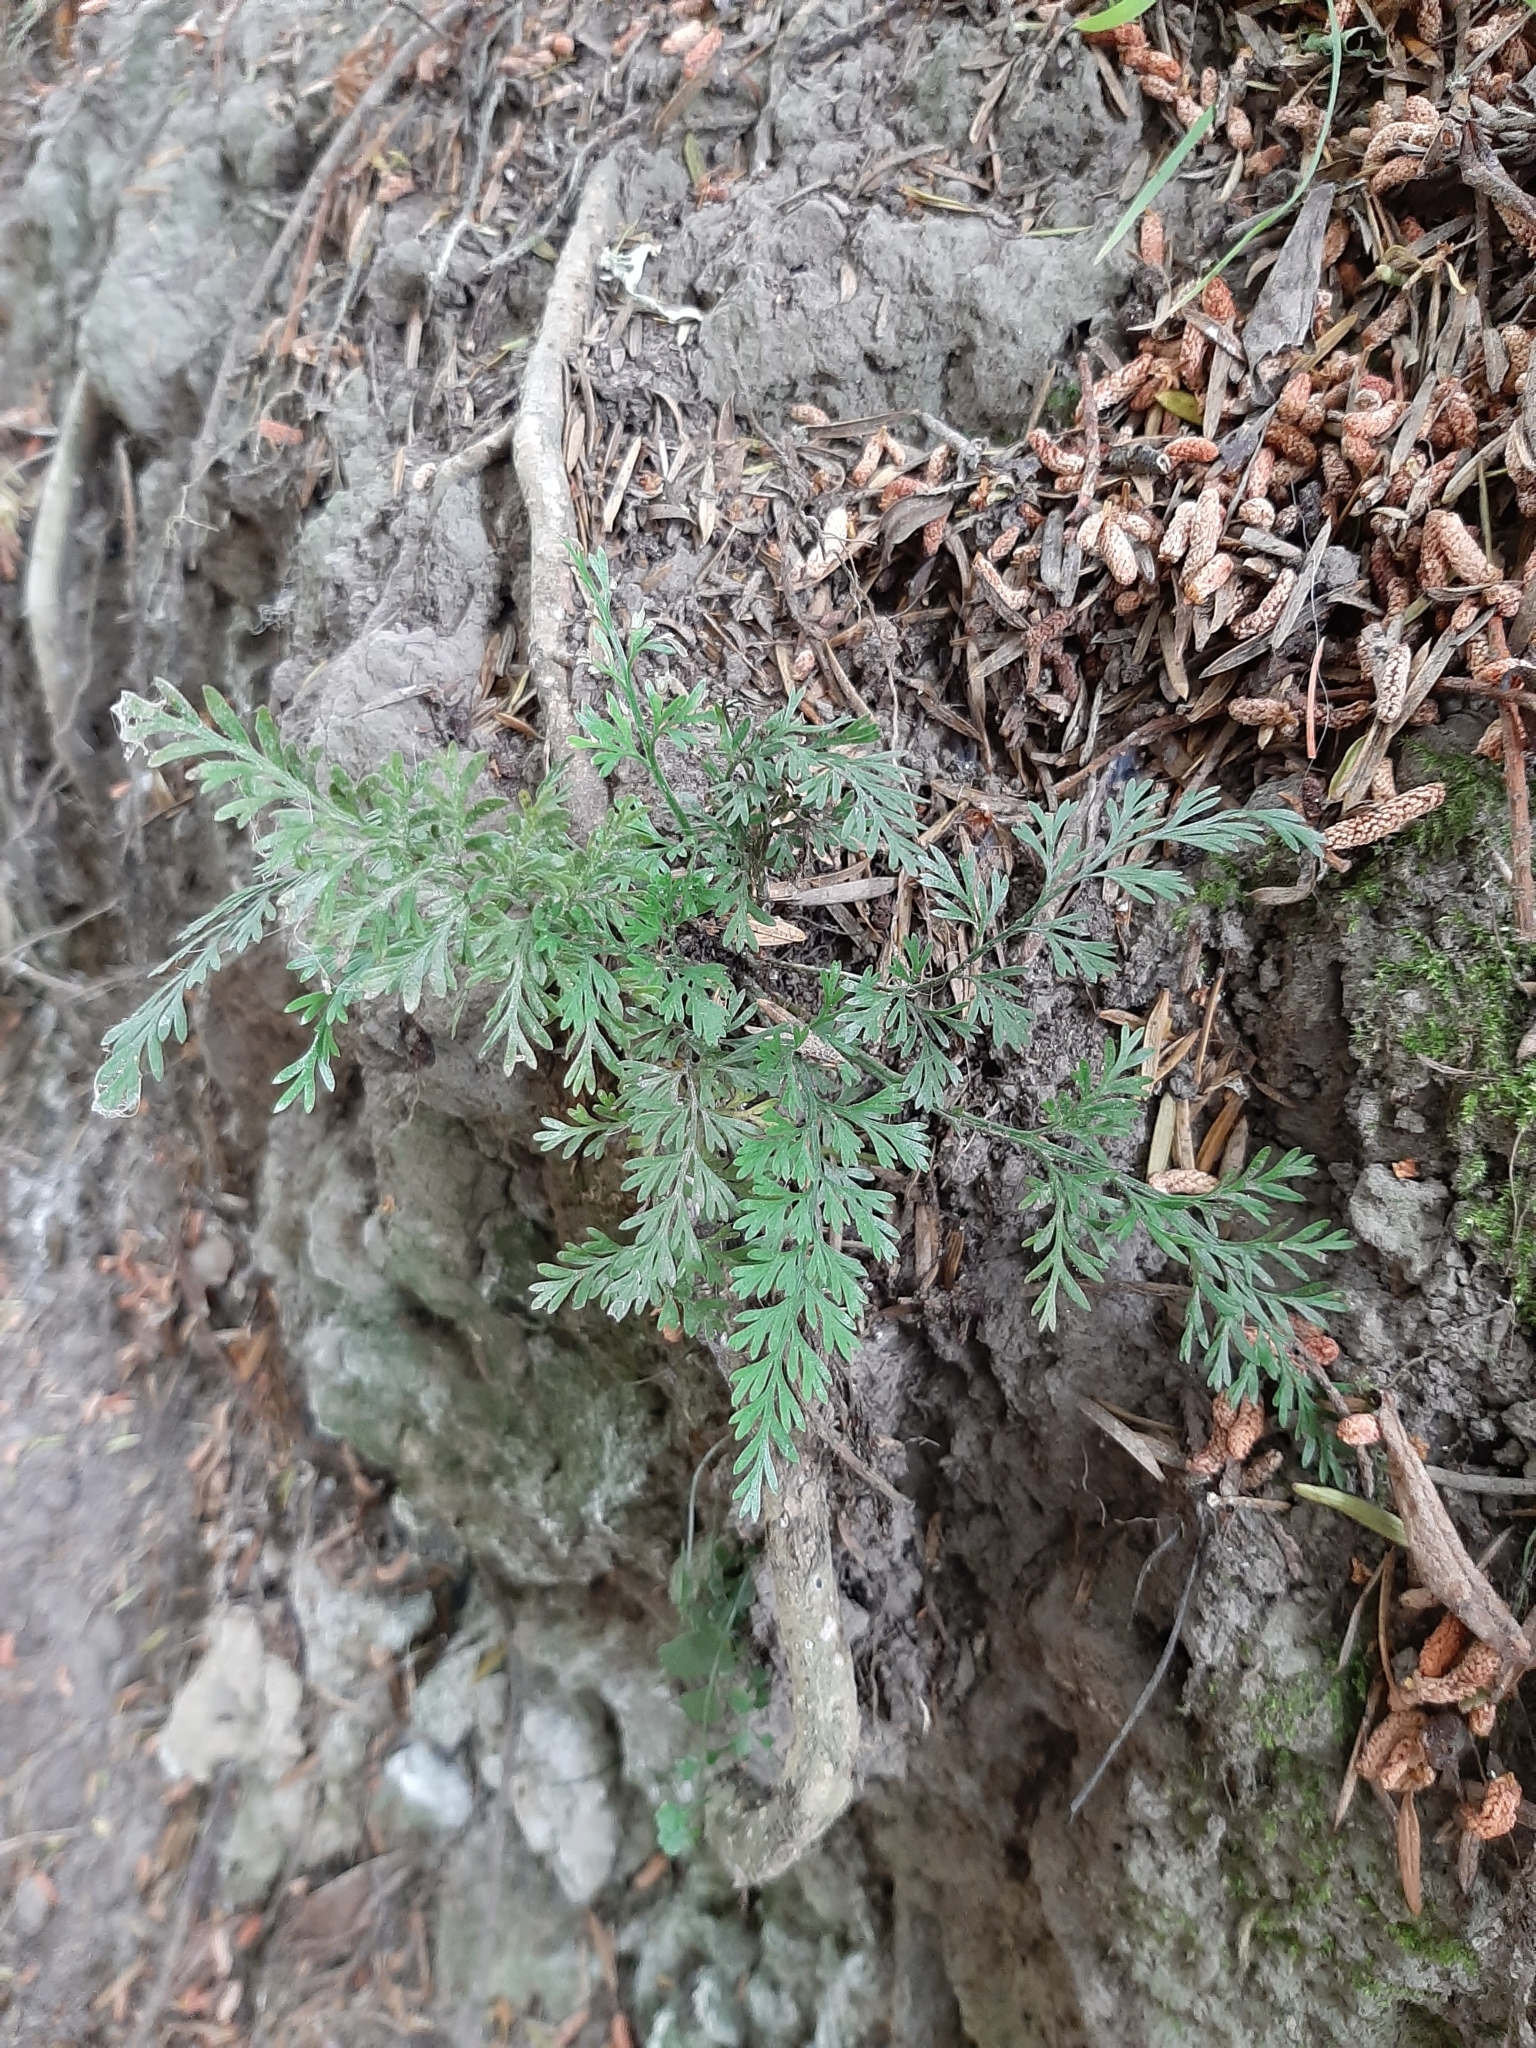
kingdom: Plantae
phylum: Tracheophyta
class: Polypodiopsida
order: Polypodiales
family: Aspleniaceae
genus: Asplenium
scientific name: Asplenium richardii
